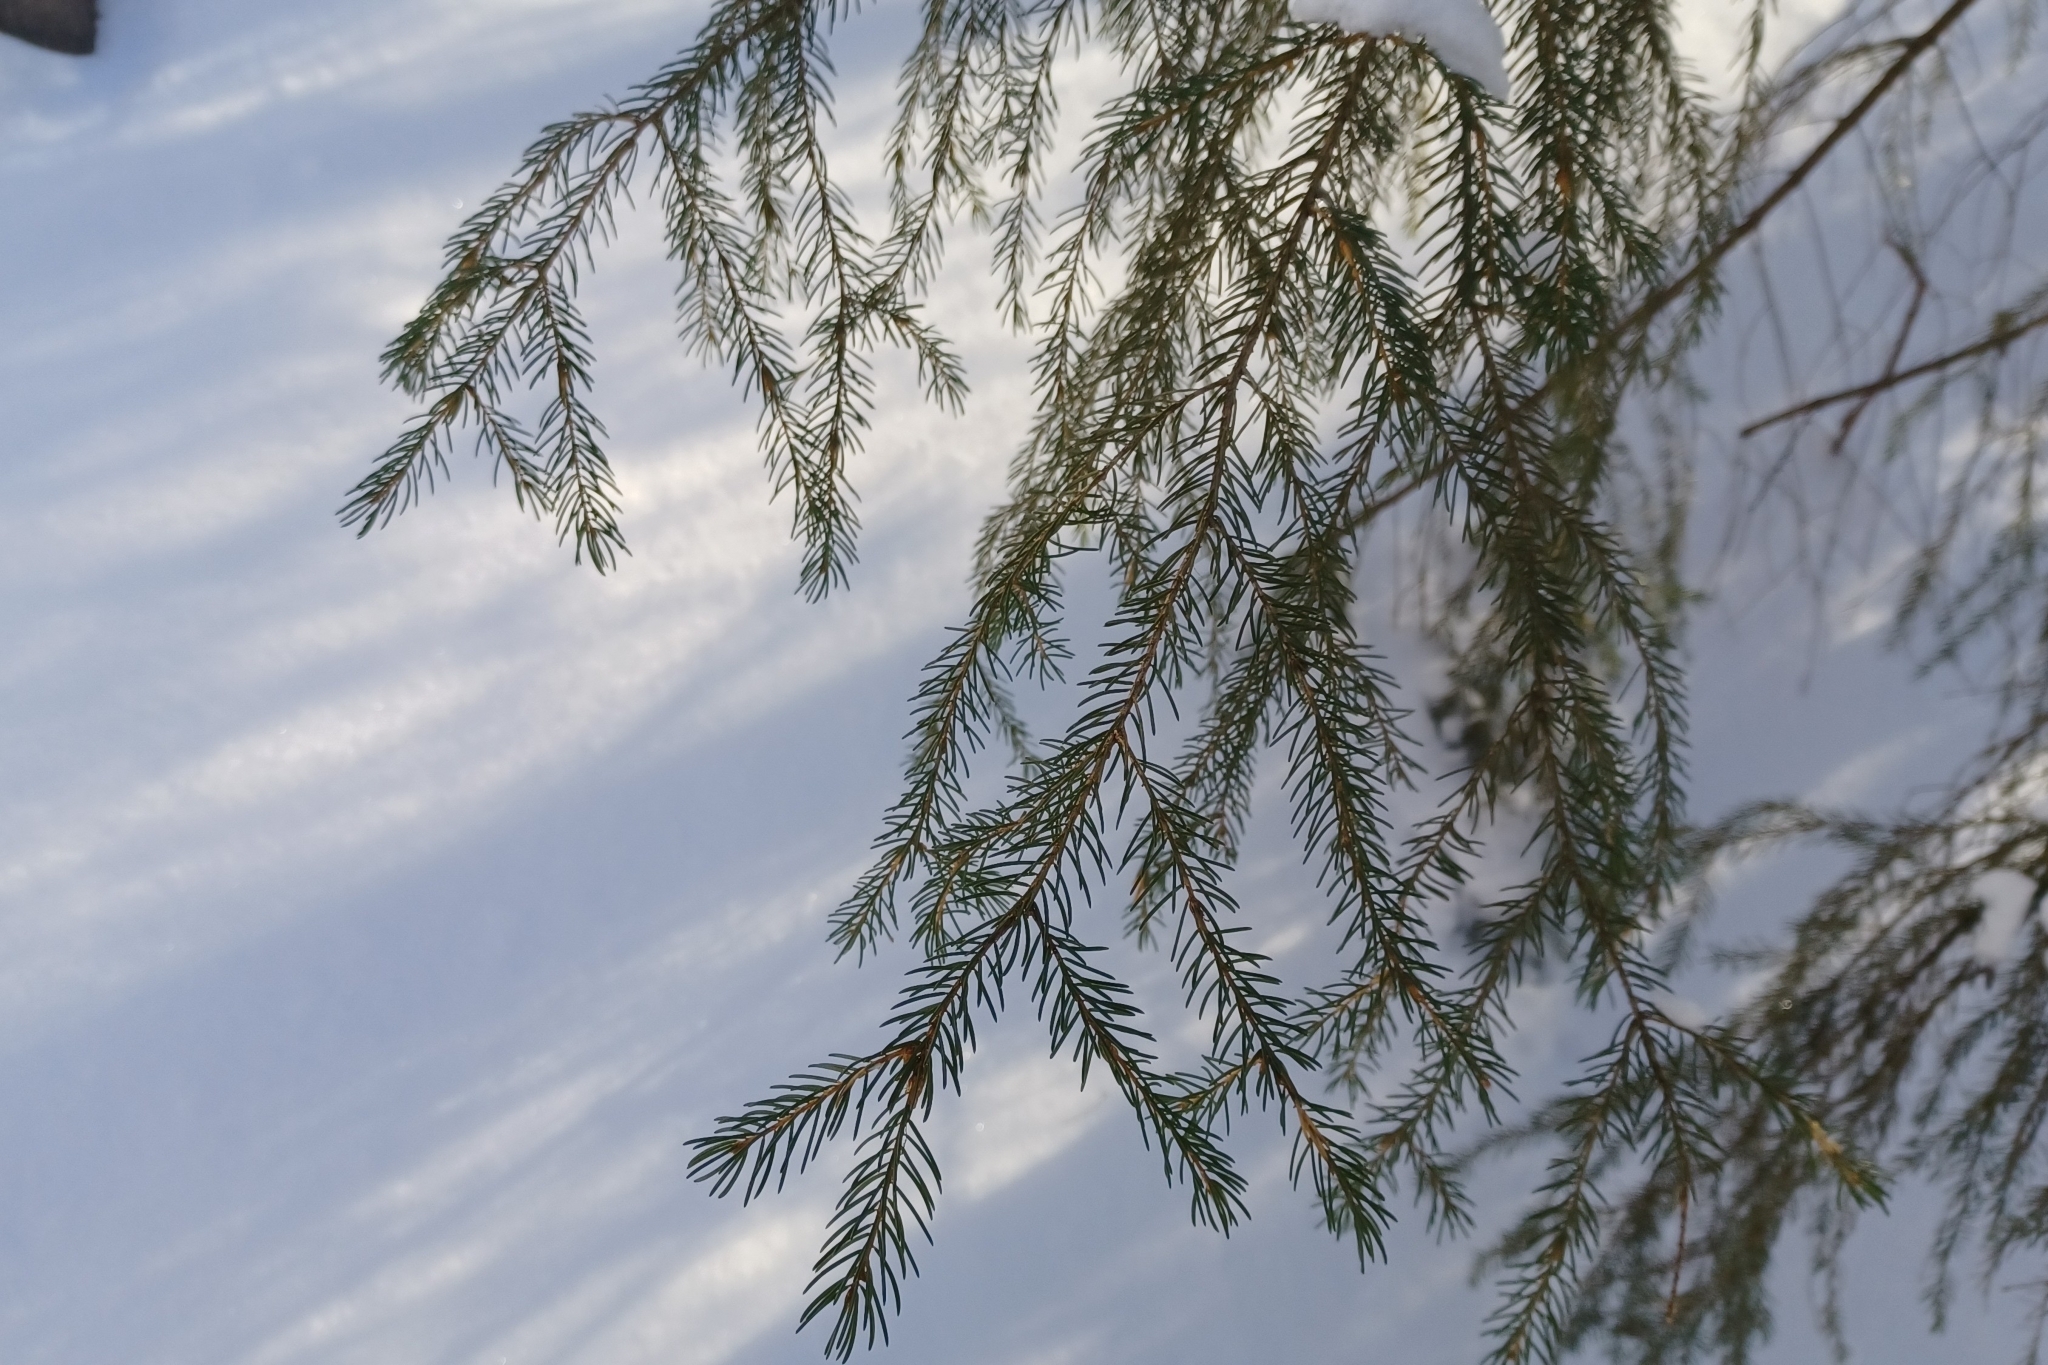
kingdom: Plantae
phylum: Tracheophyta
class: Pinopsida
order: Pinales
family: Pinaceae
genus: Picea
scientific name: Picea rubens
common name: Red spruce
